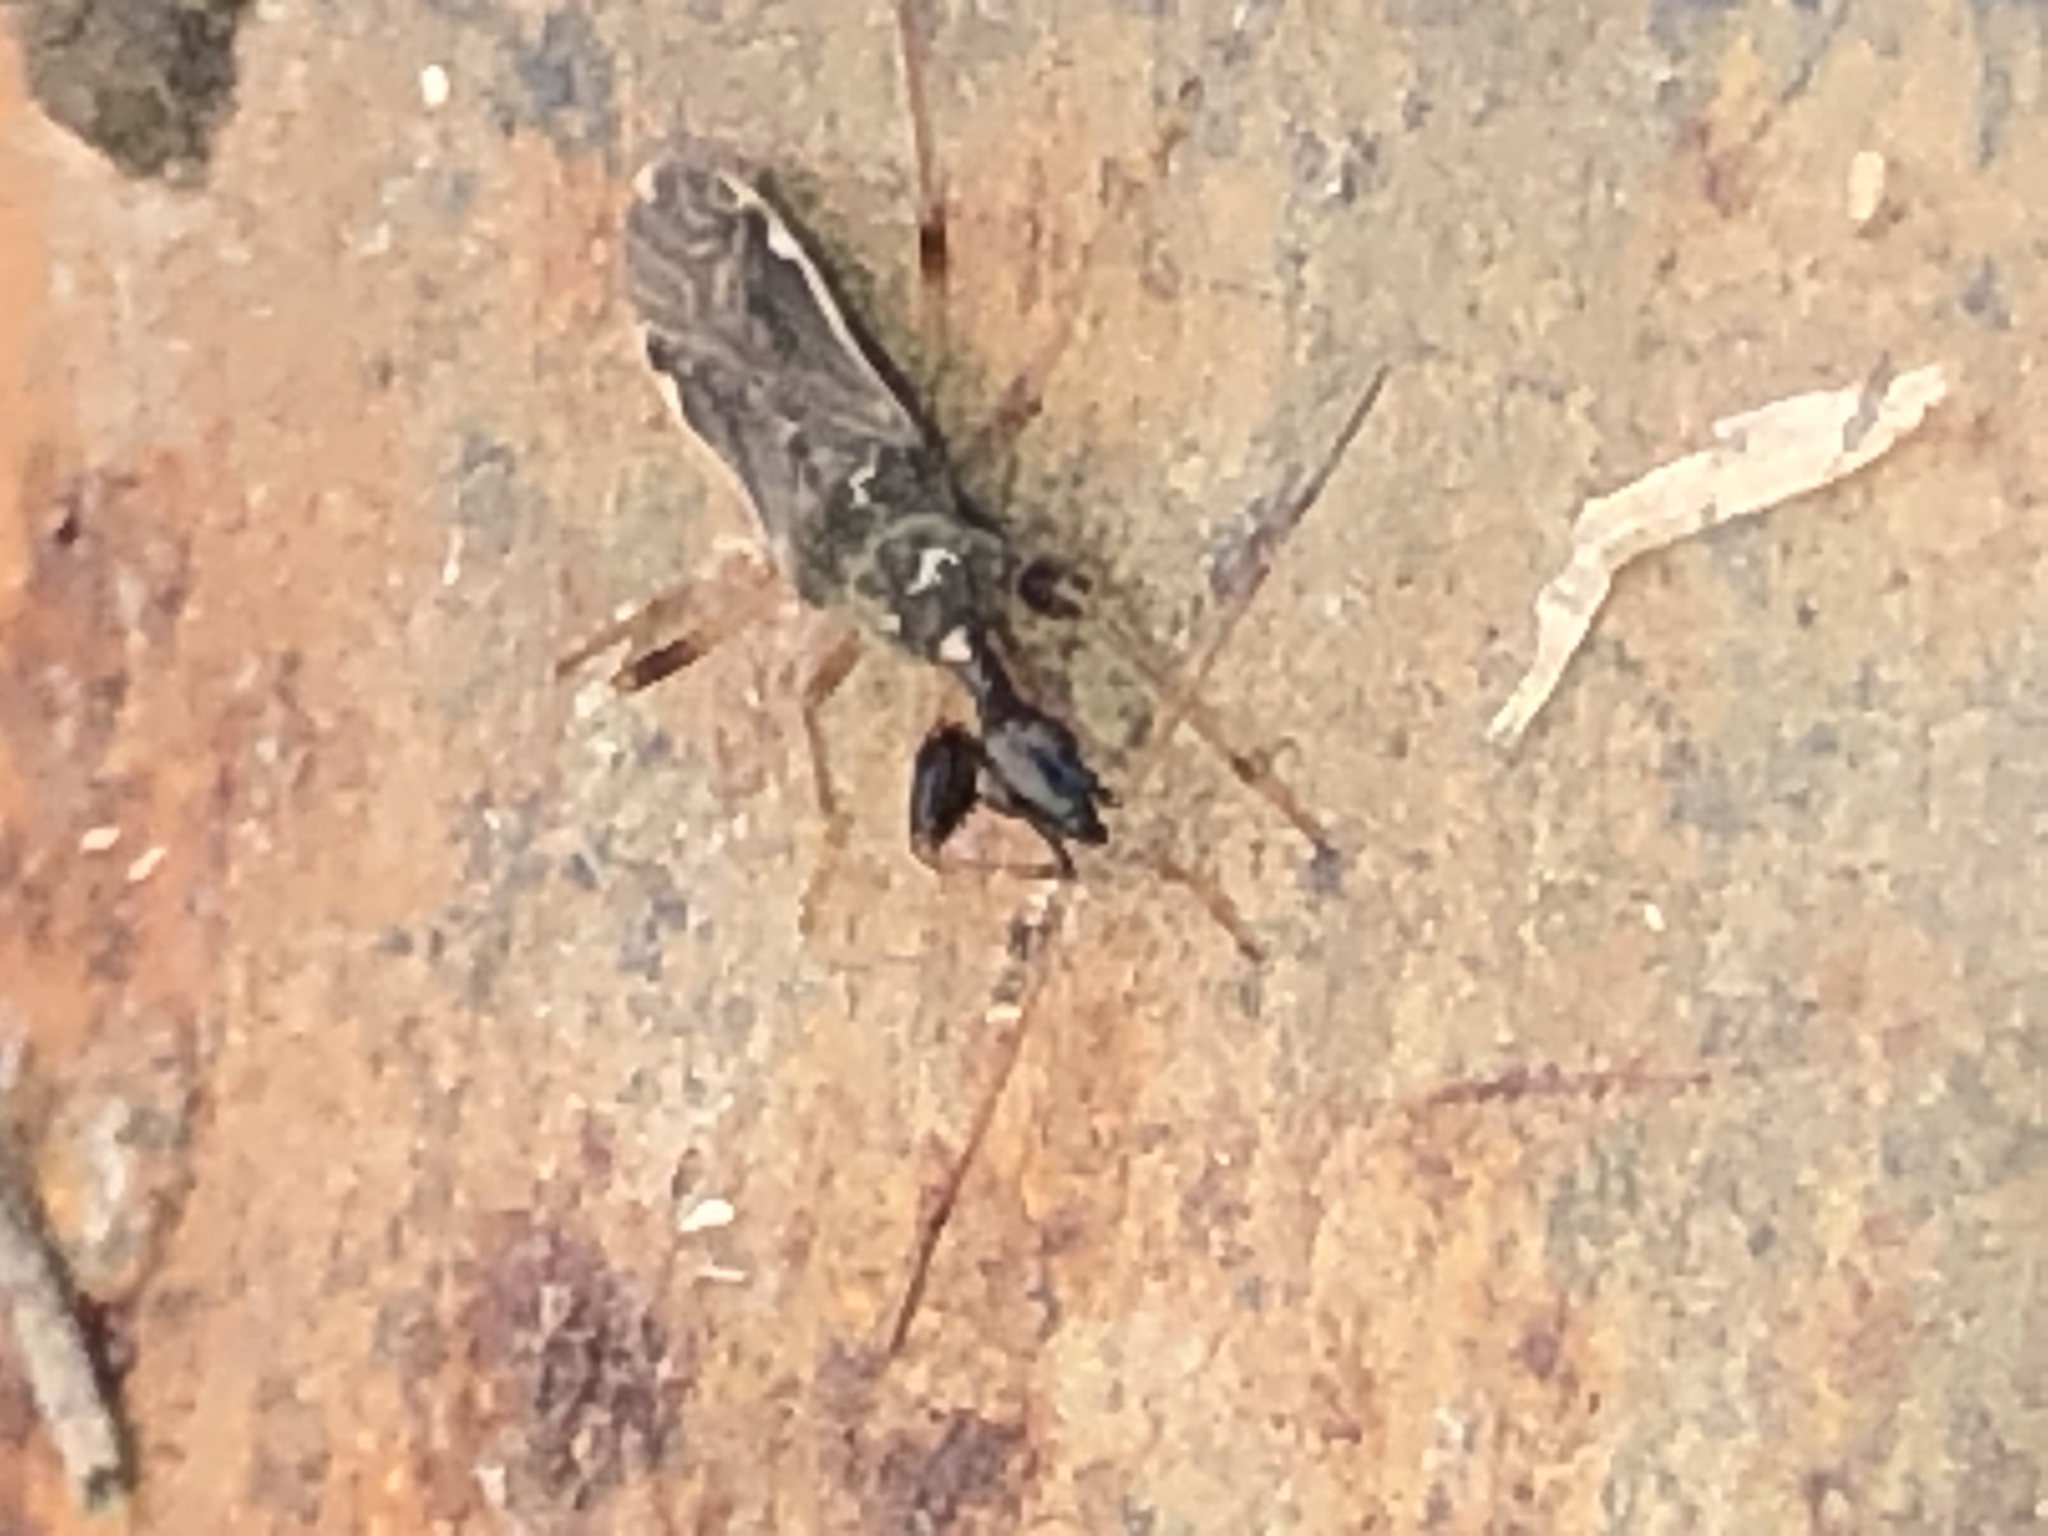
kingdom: Animalia
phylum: Arthropoda
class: Insecta
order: Hemiptera
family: Rhyparochromidae
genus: Myodocha
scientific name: Myodocha serripes
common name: Long-necked seed bug
